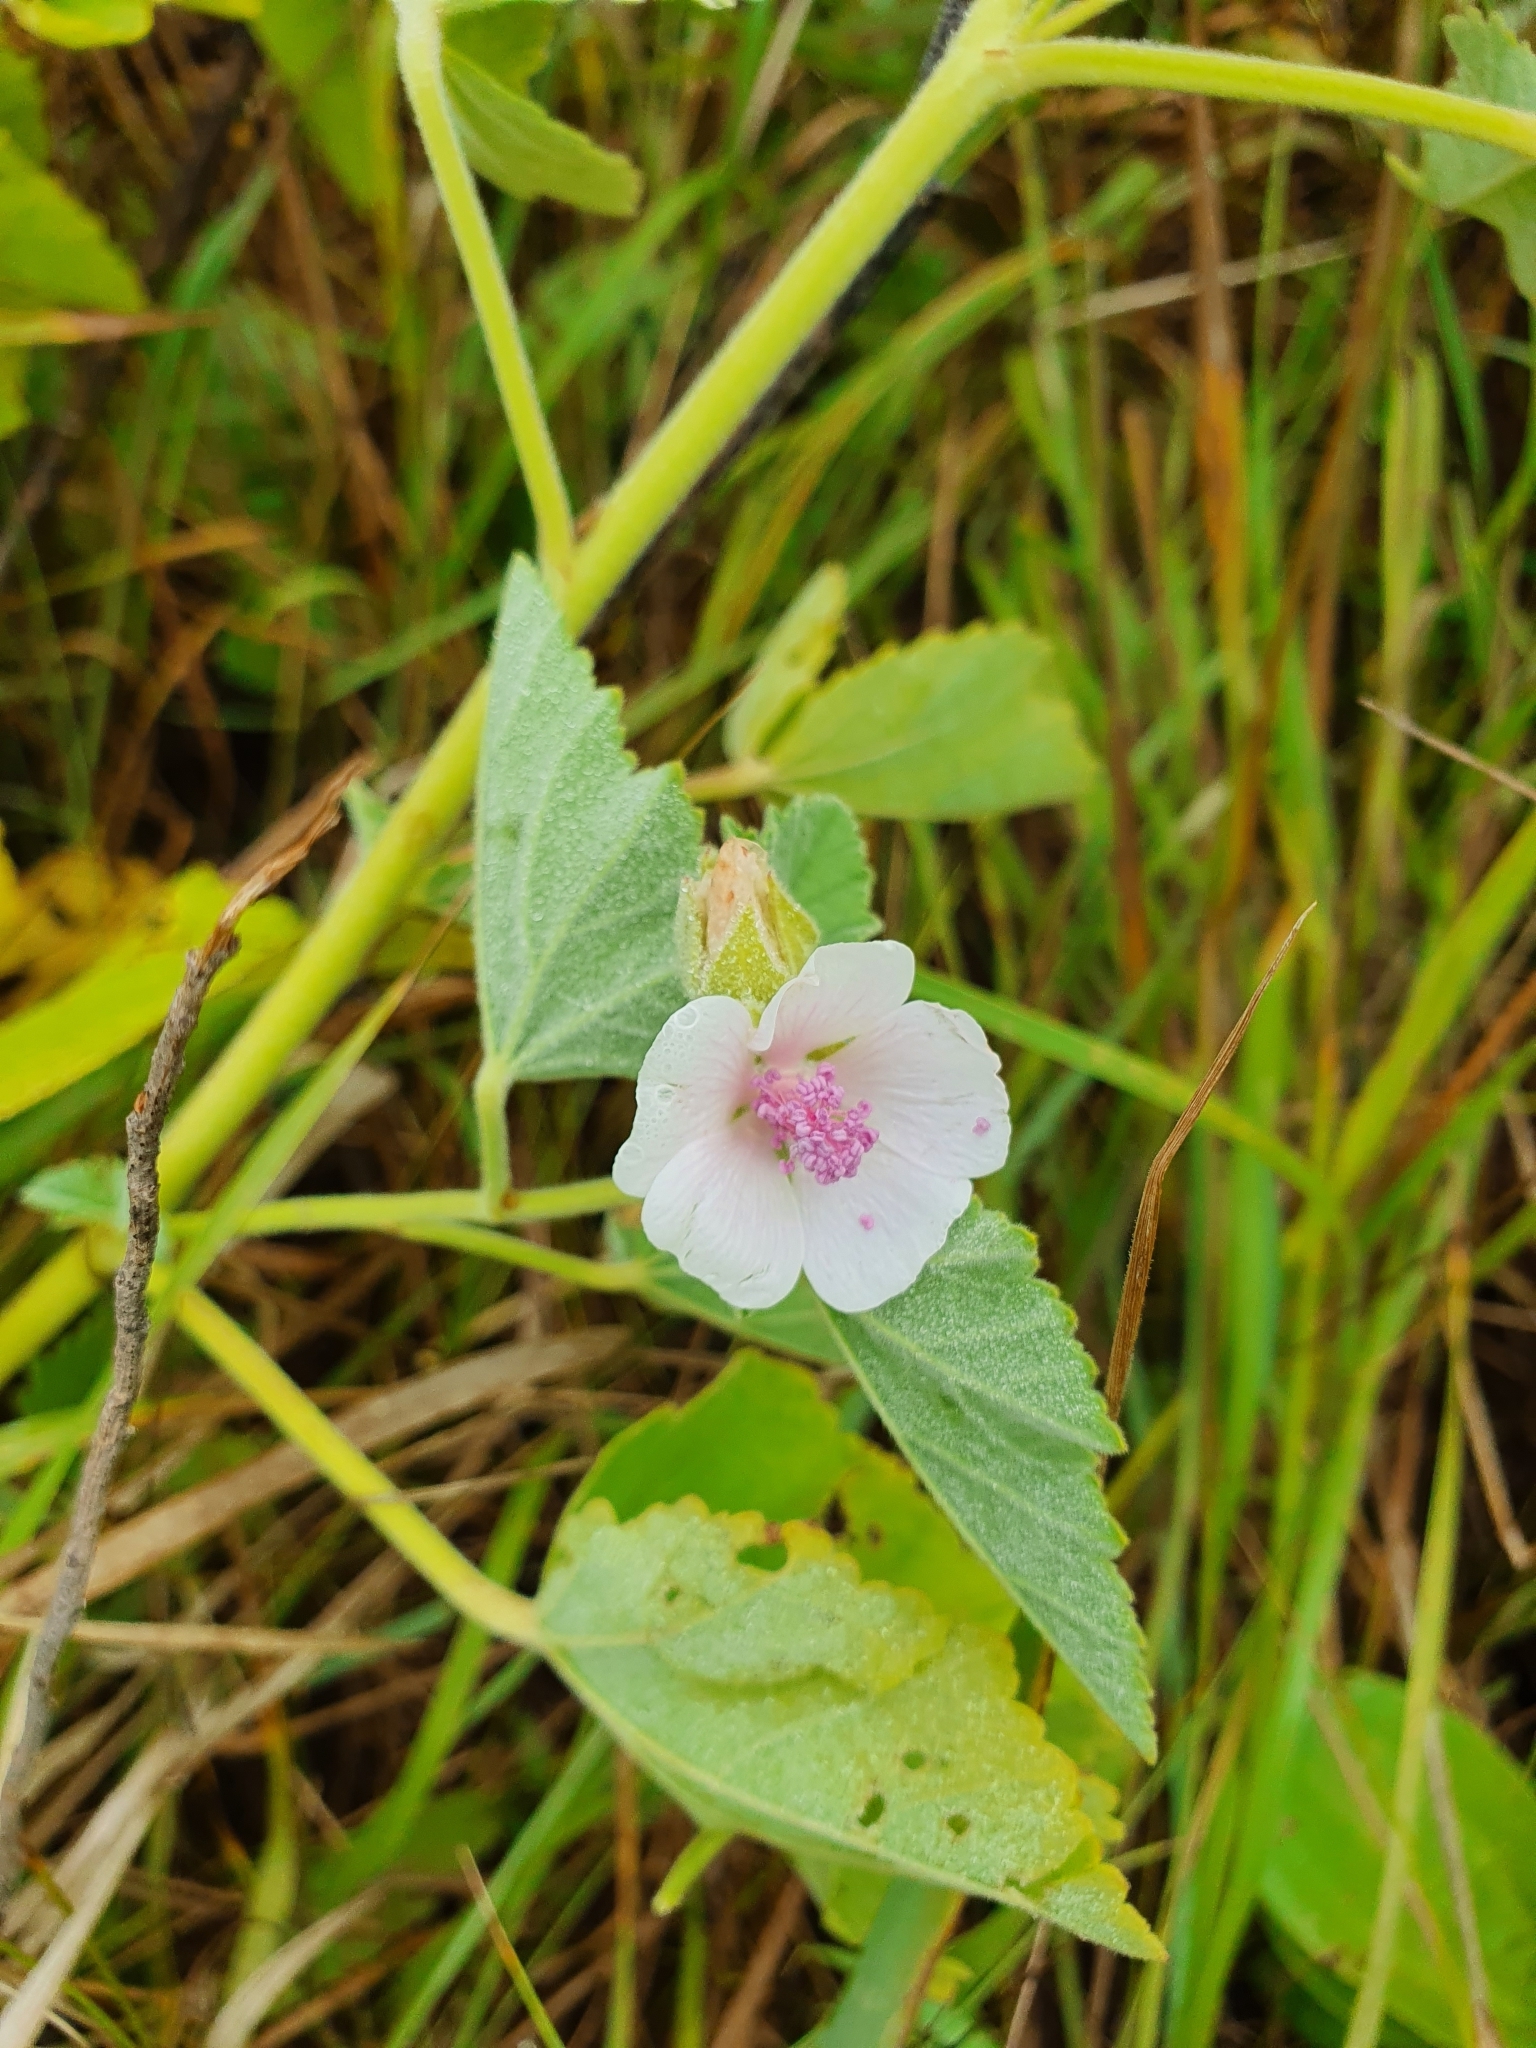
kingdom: Plantae
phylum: Tracheophyta
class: Magnoliopsida
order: Malvales
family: Malvaceae
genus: Althaea
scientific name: Althaea officinalis
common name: Marsh-mallow
